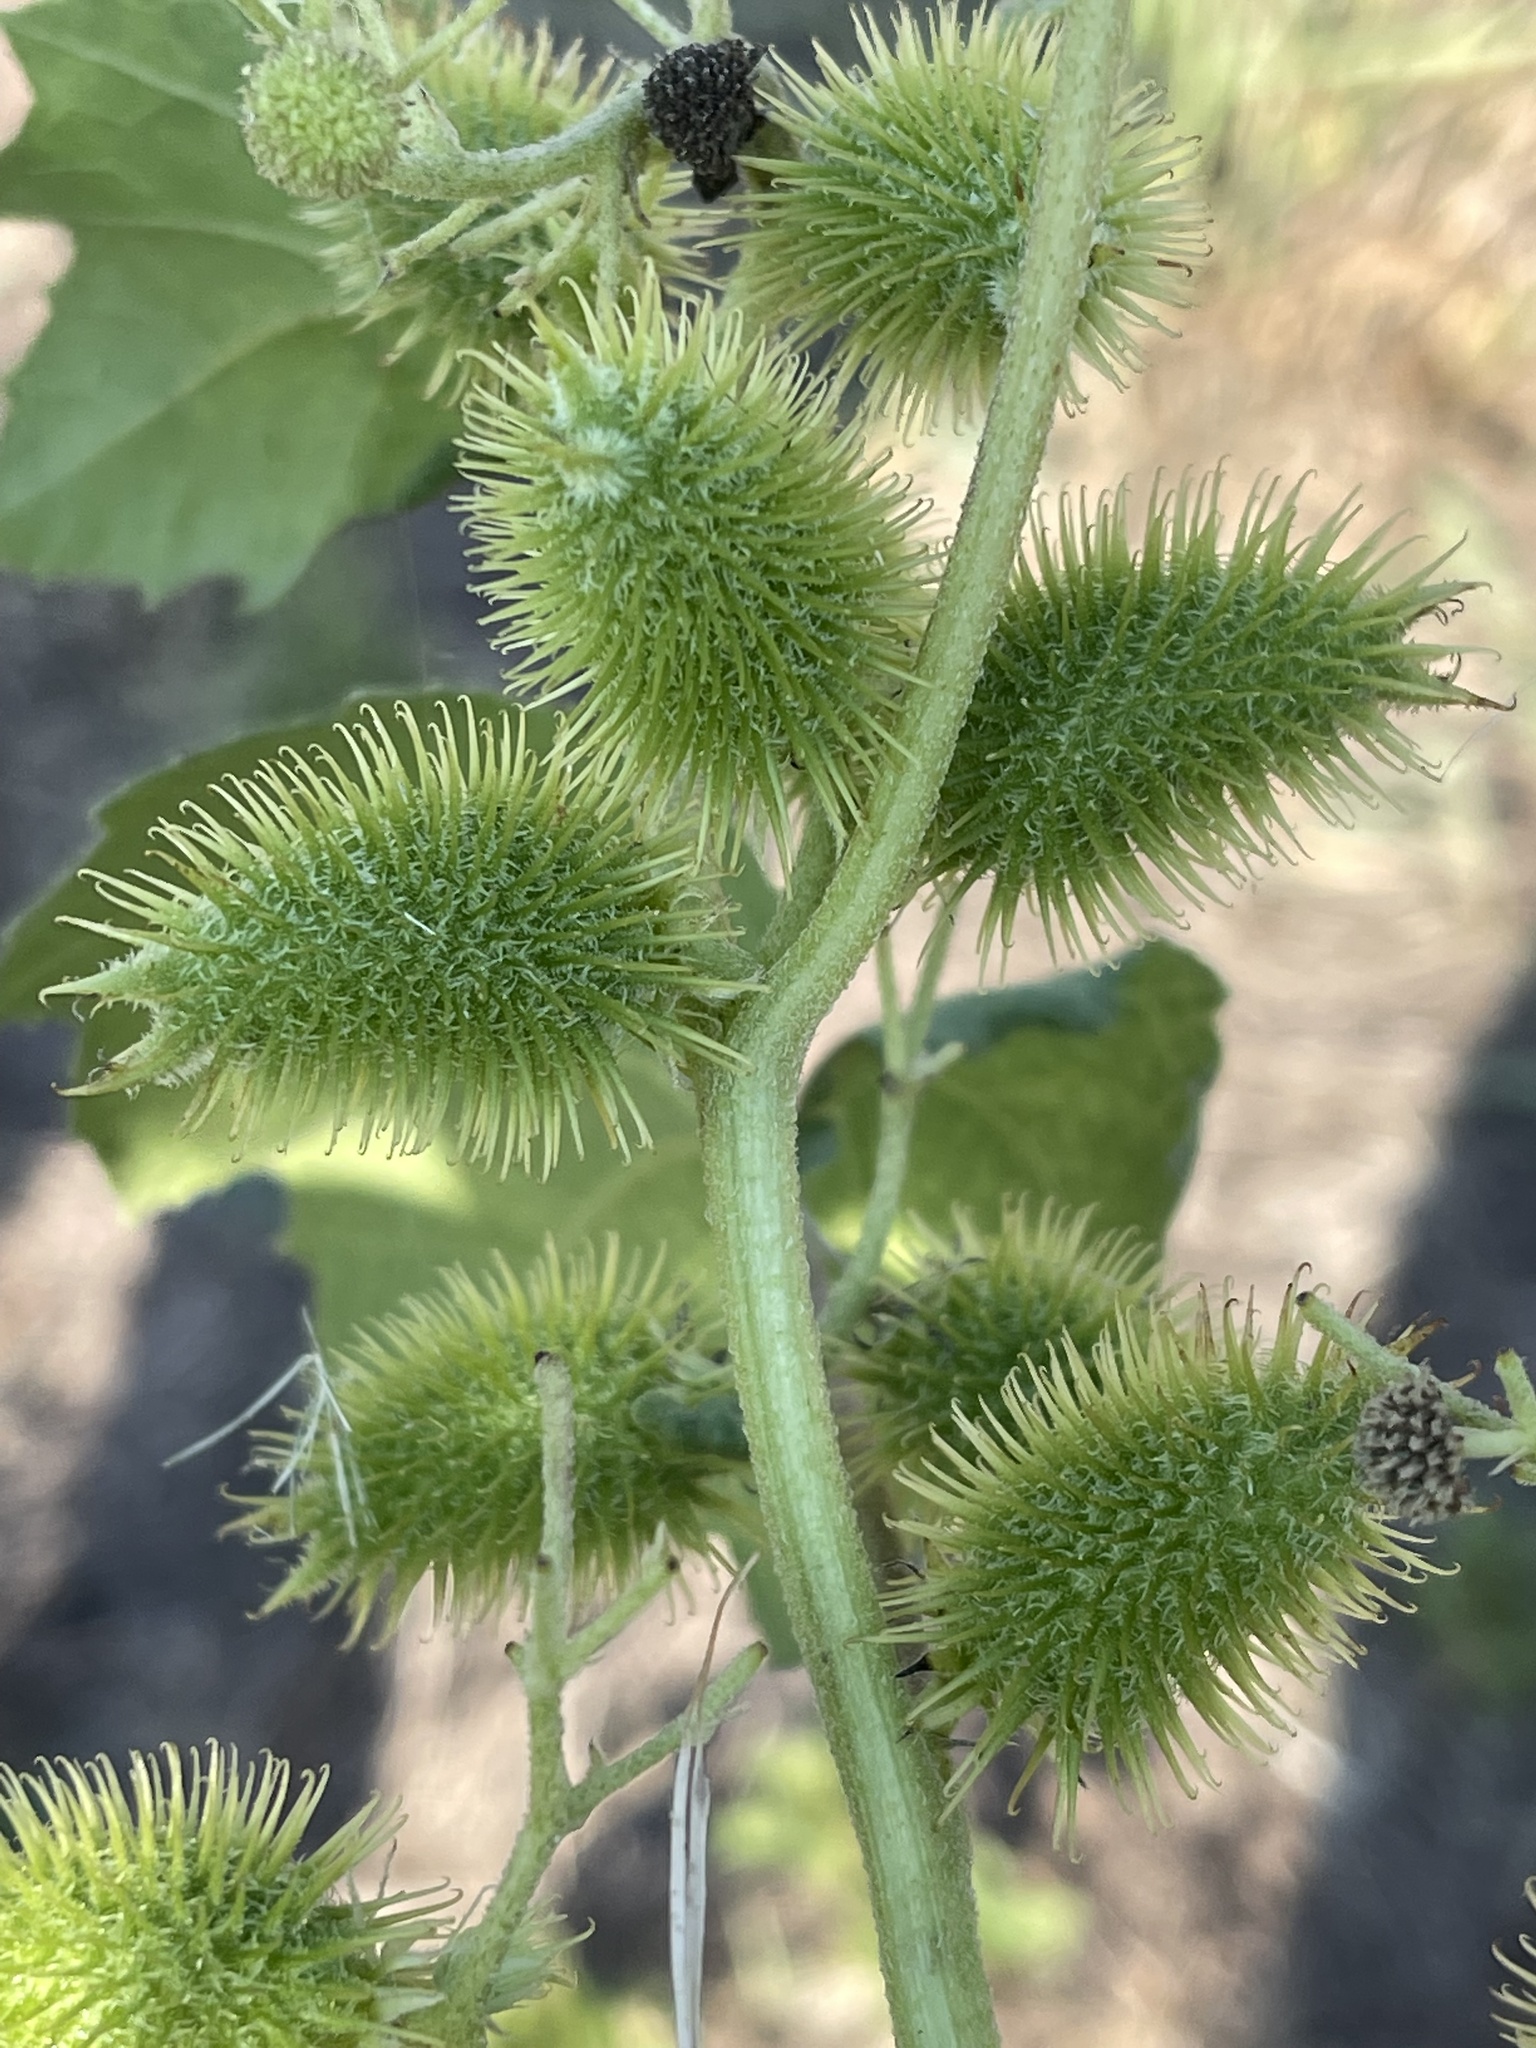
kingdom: Plantae
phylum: Tracheophyta
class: Magnoliopsida
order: Asterales
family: Asteraceae
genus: Xanthium
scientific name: Xanthium strumarium
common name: Rough cocklebur
